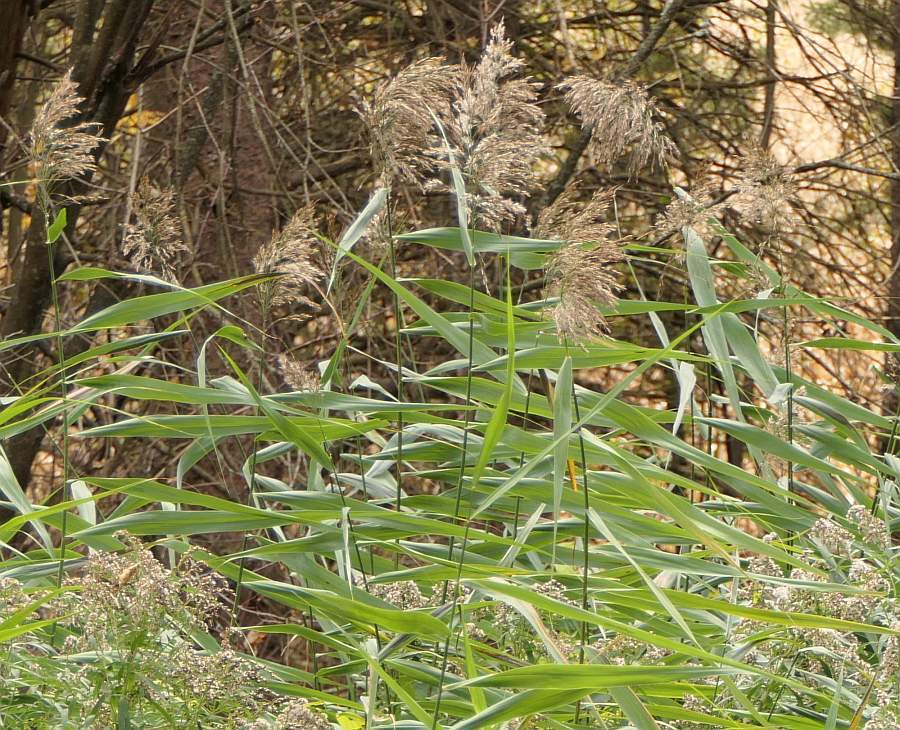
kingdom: Plantae
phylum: Tracheophyta
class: Liliopsida
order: Poales
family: Poaceae
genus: Phragmites
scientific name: Phragmites australis
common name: Common reed
